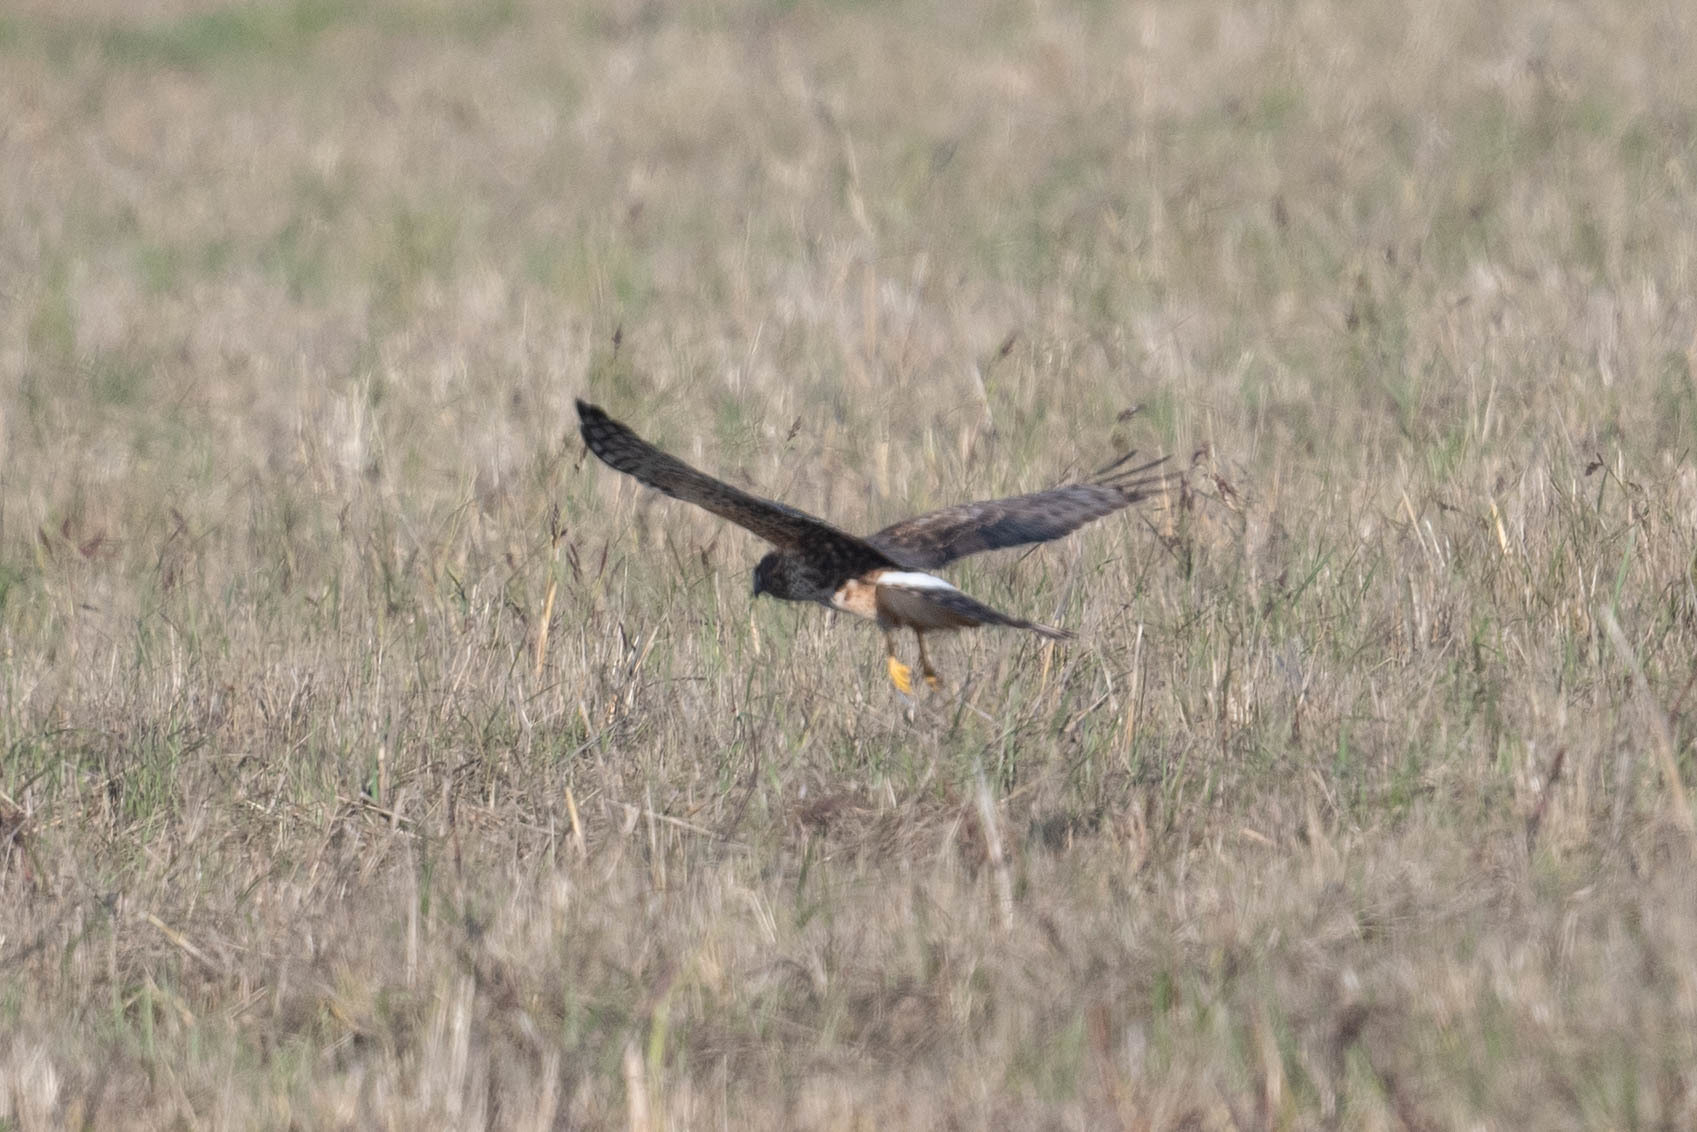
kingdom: Animalia
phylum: Chordata
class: Aves
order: Accipitriformes
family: Accipitridae
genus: Circus
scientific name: Circus cyaneus
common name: Hen harrier
